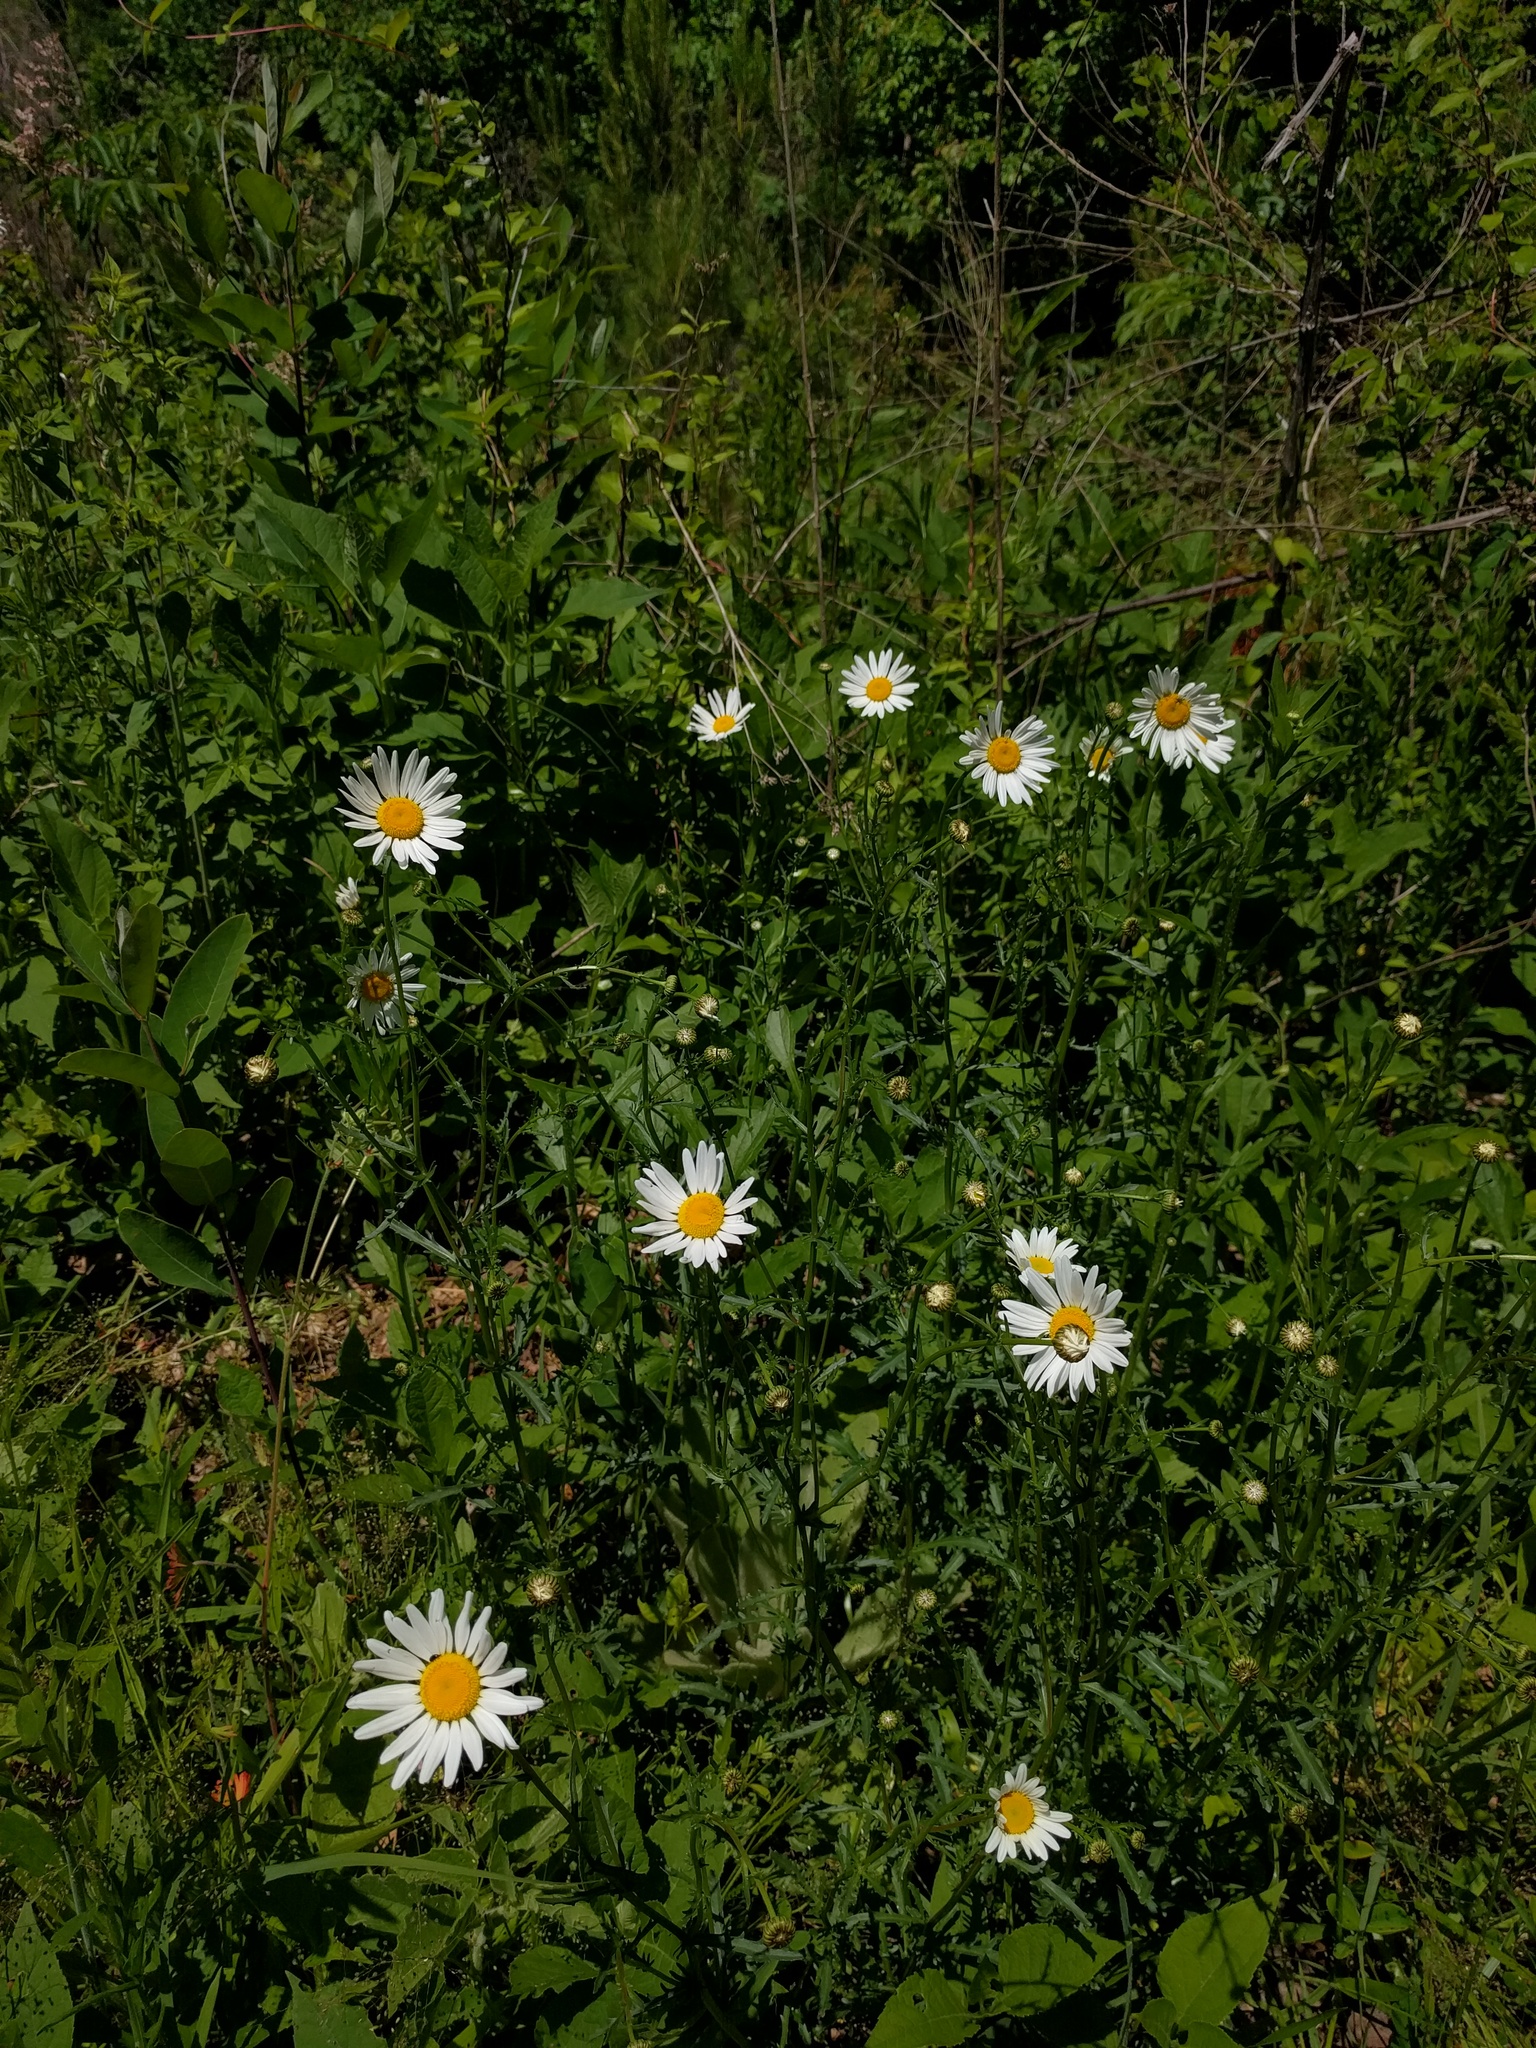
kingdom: Plantae
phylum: Tracheophyta
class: Magnoliopsida
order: Asterales
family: Asteraceae
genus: Leucanthemum
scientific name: Leucanthemum vulgare
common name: Oxeye daisy
